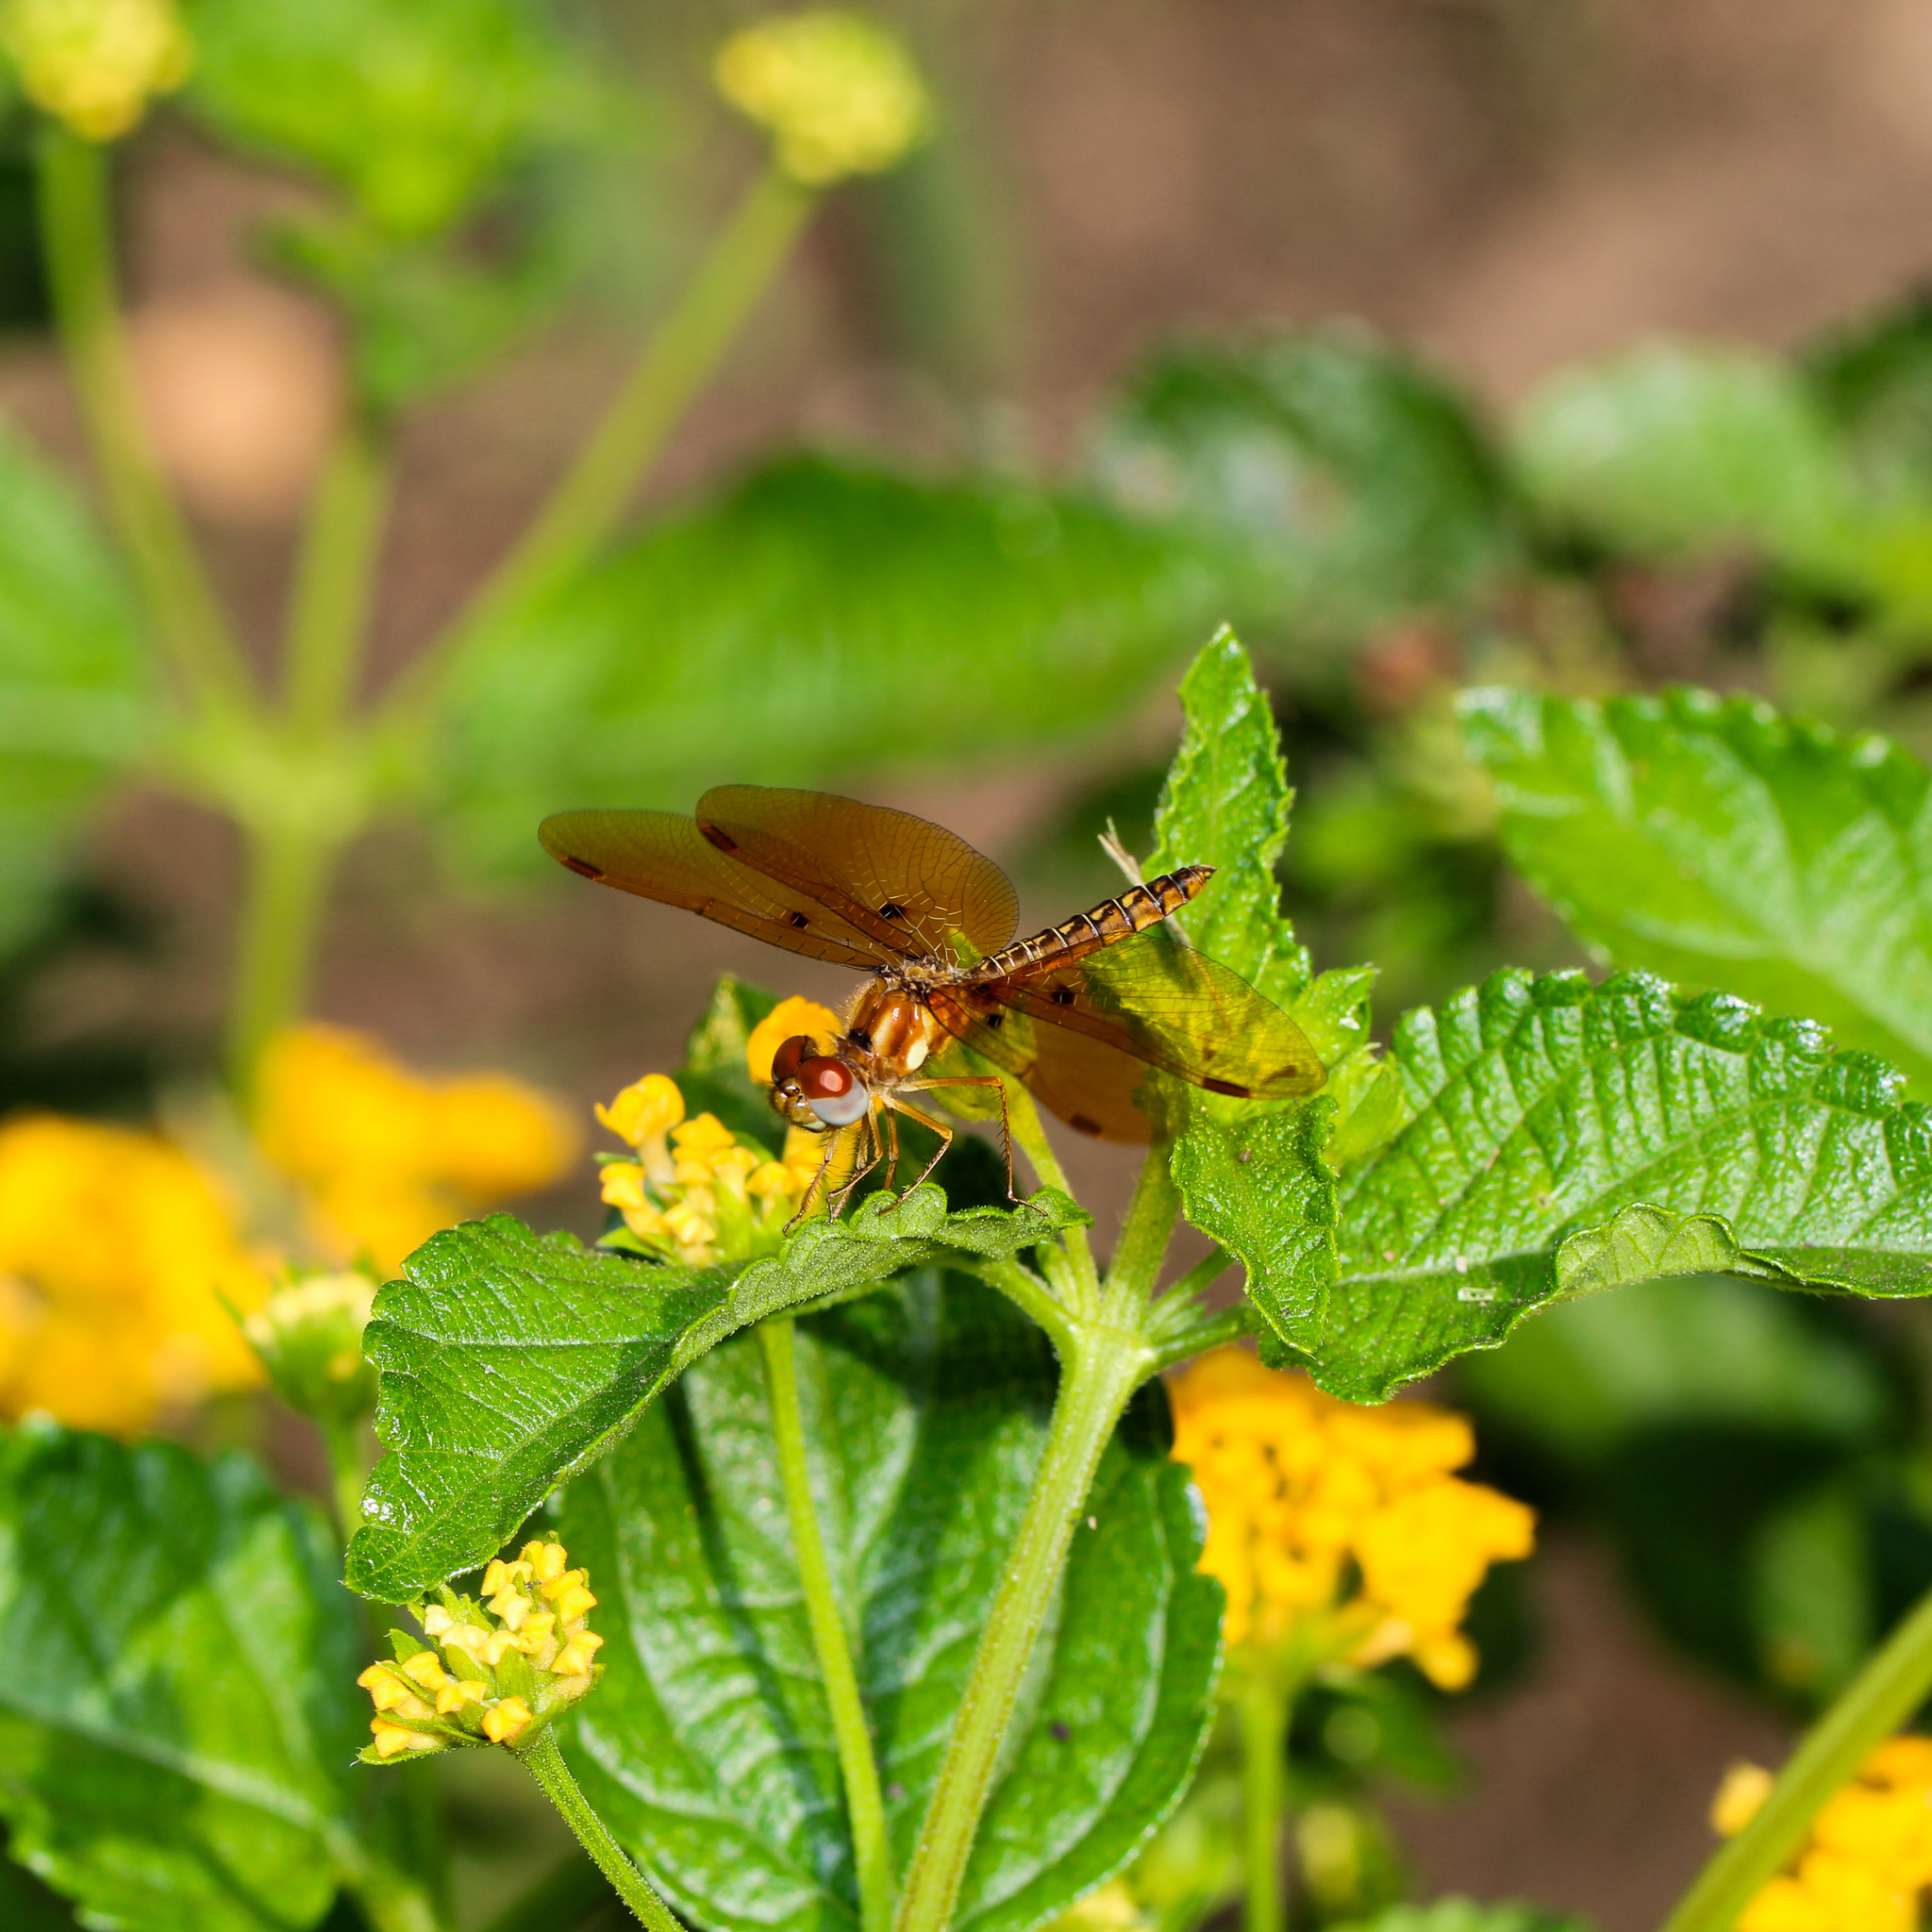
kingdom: Animalia
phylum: Arthropoda
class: Insecta
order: Odonata
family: Libellulidae
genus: Perithemis
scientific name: Perithemis tenera
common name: Eastern amberwing
